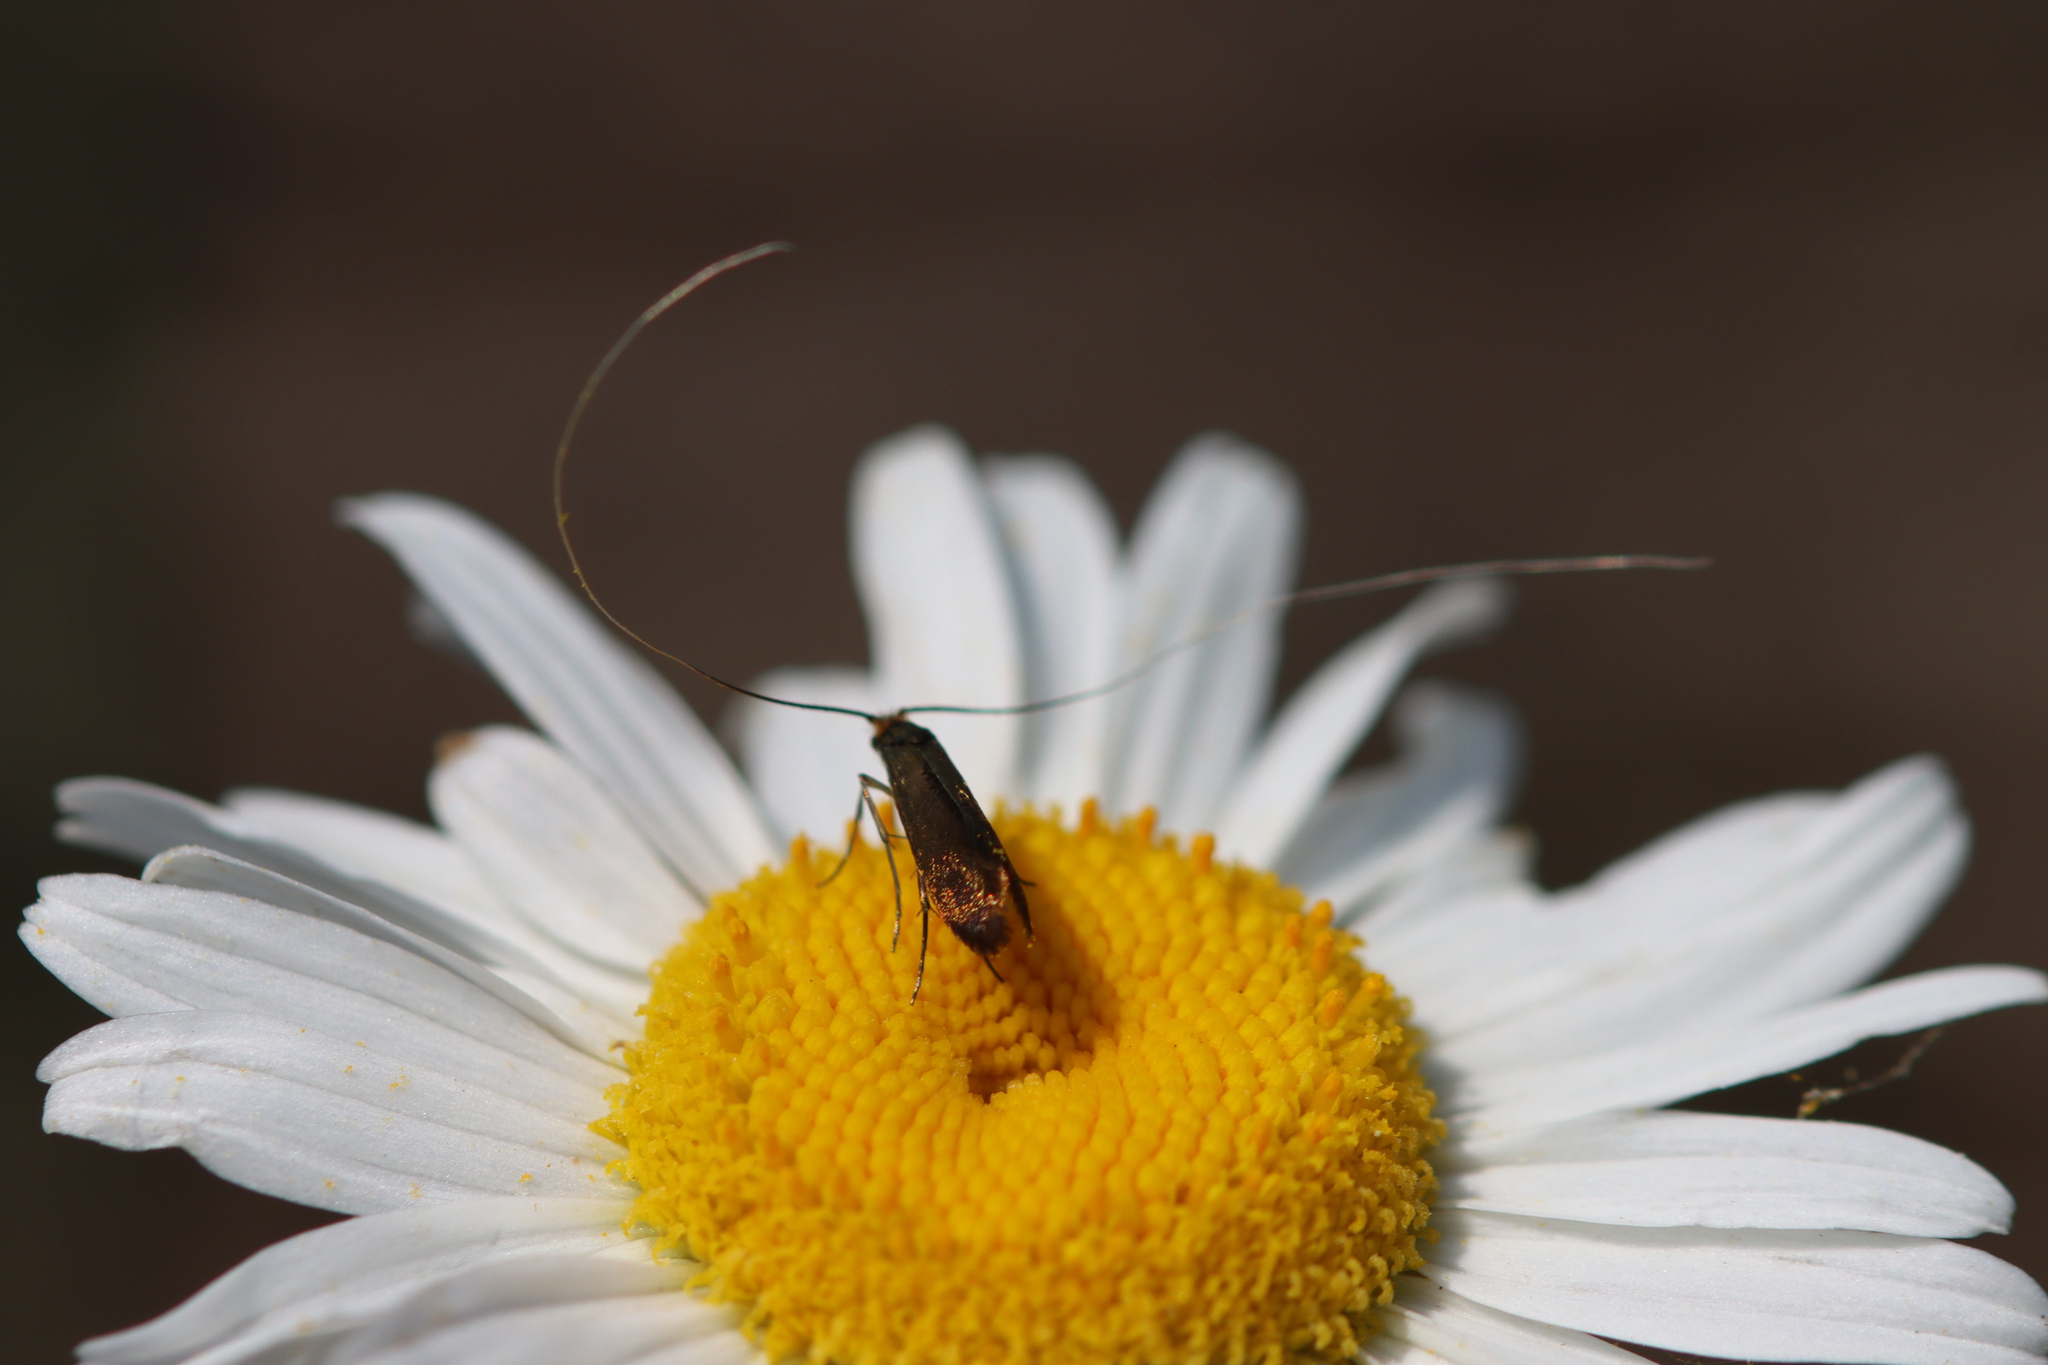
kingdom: Animalia
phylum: Arthropoda
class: Insecta
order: Lepidoptera
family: Adelidae
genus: Adela
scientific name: Adela violella
